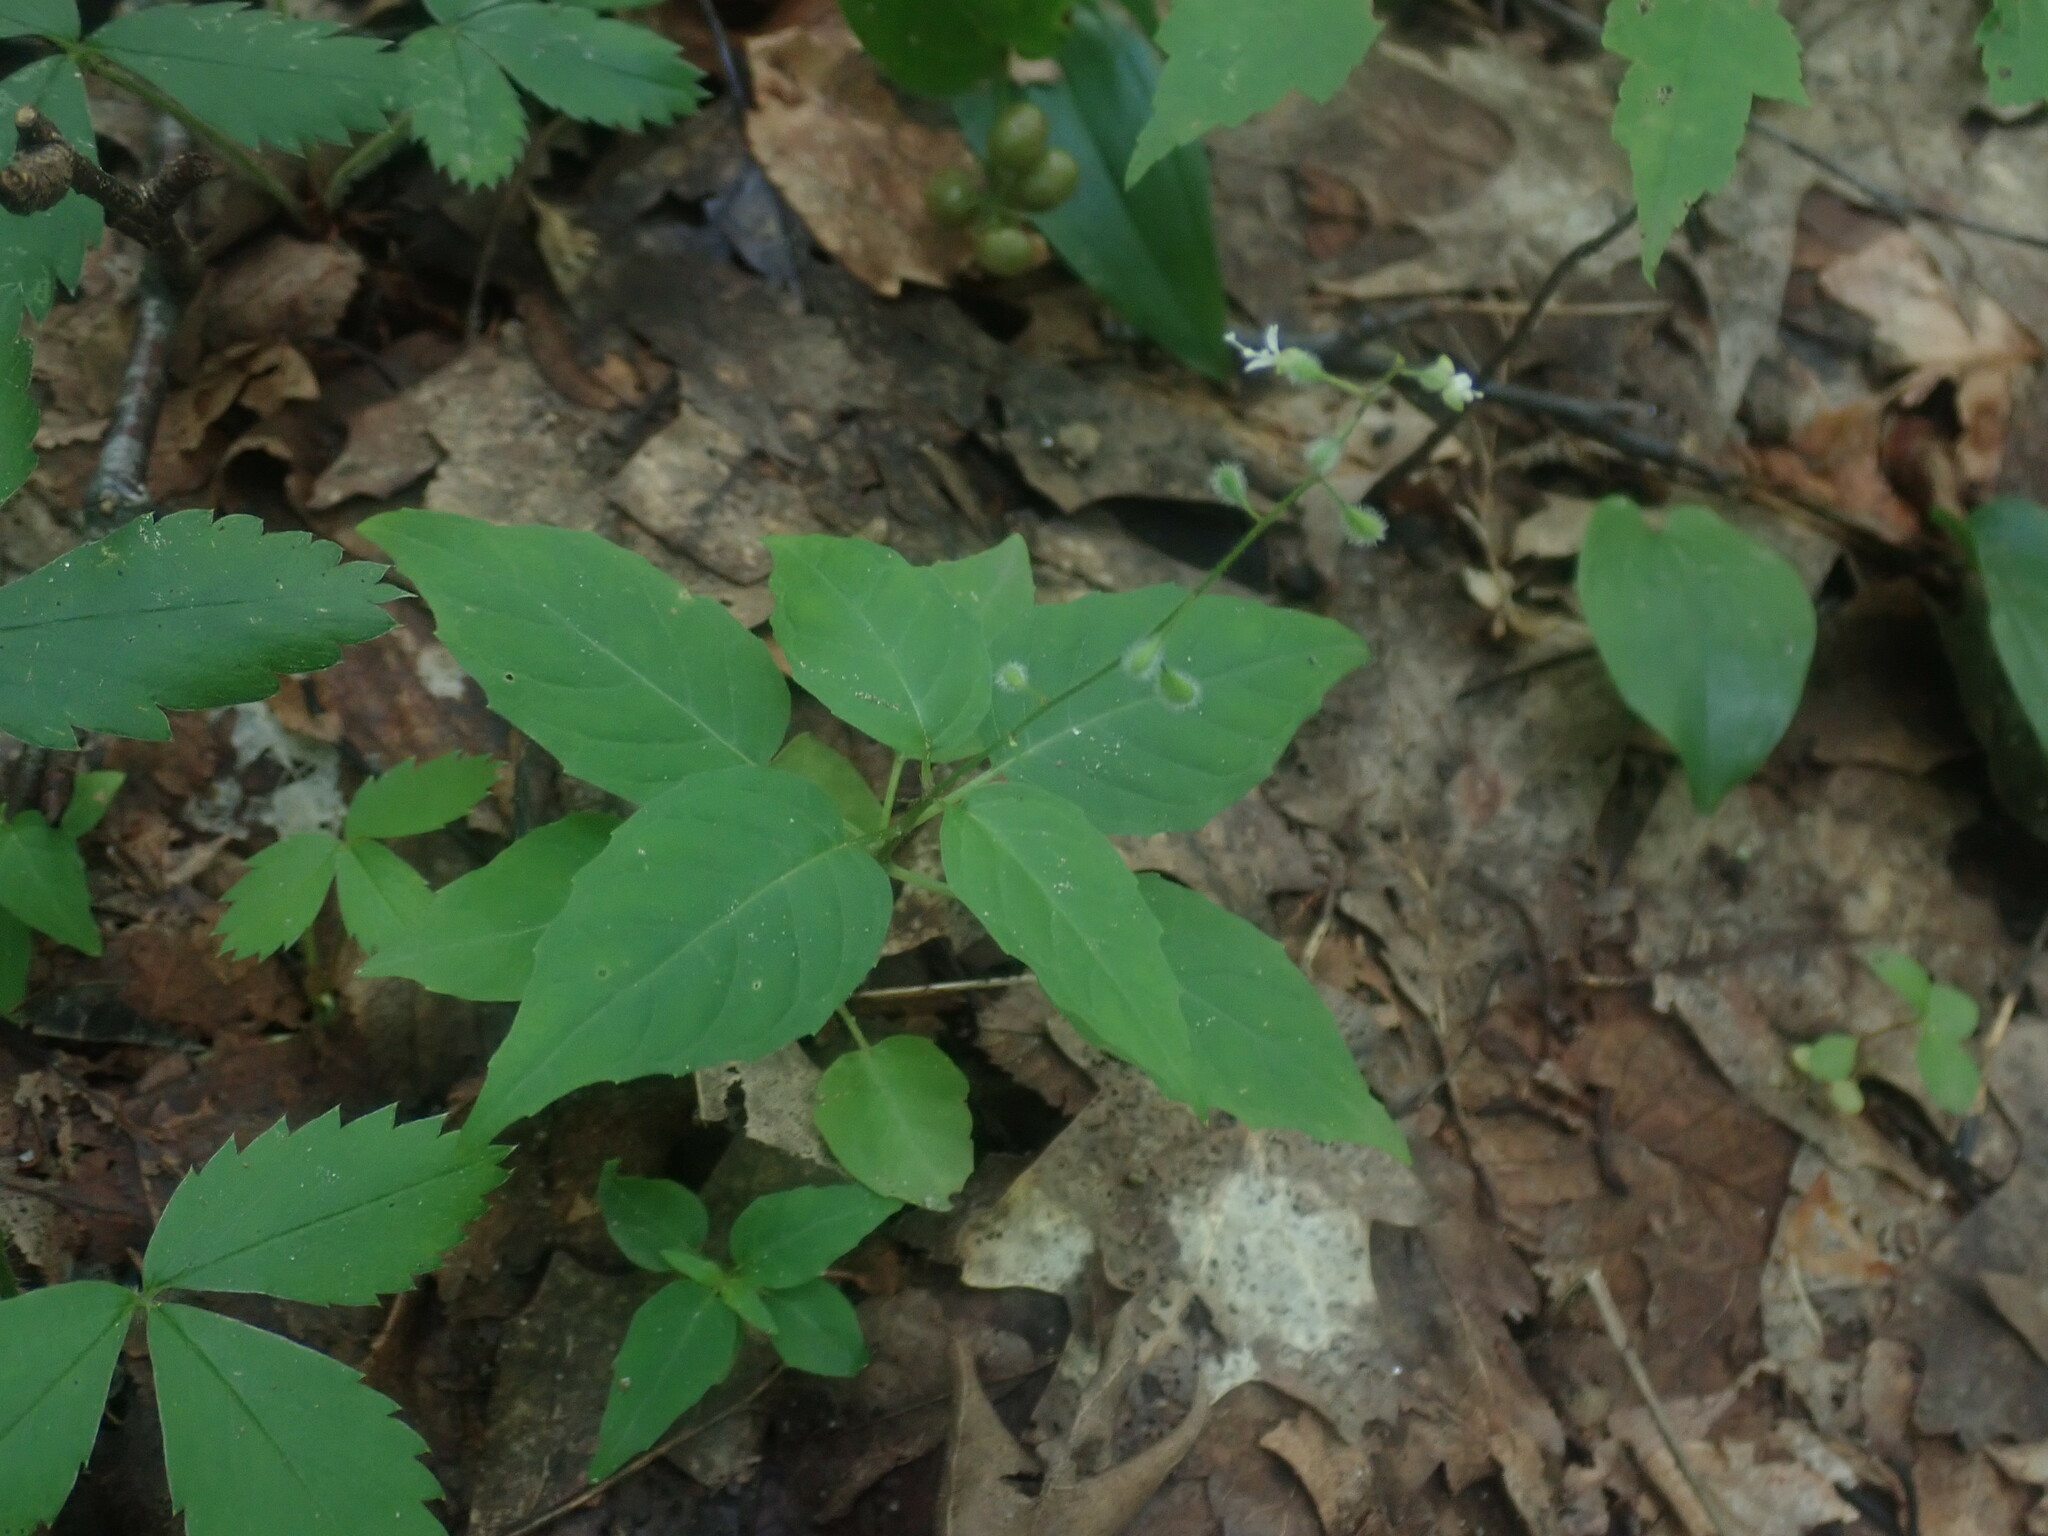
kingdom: Plantae
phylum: Tracheophyta
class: Magnoliopsida
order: Myrtales
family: Onagraceae
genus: Circaea
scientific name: Circaea alpina
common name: Alpine enchanter's-nightshade
